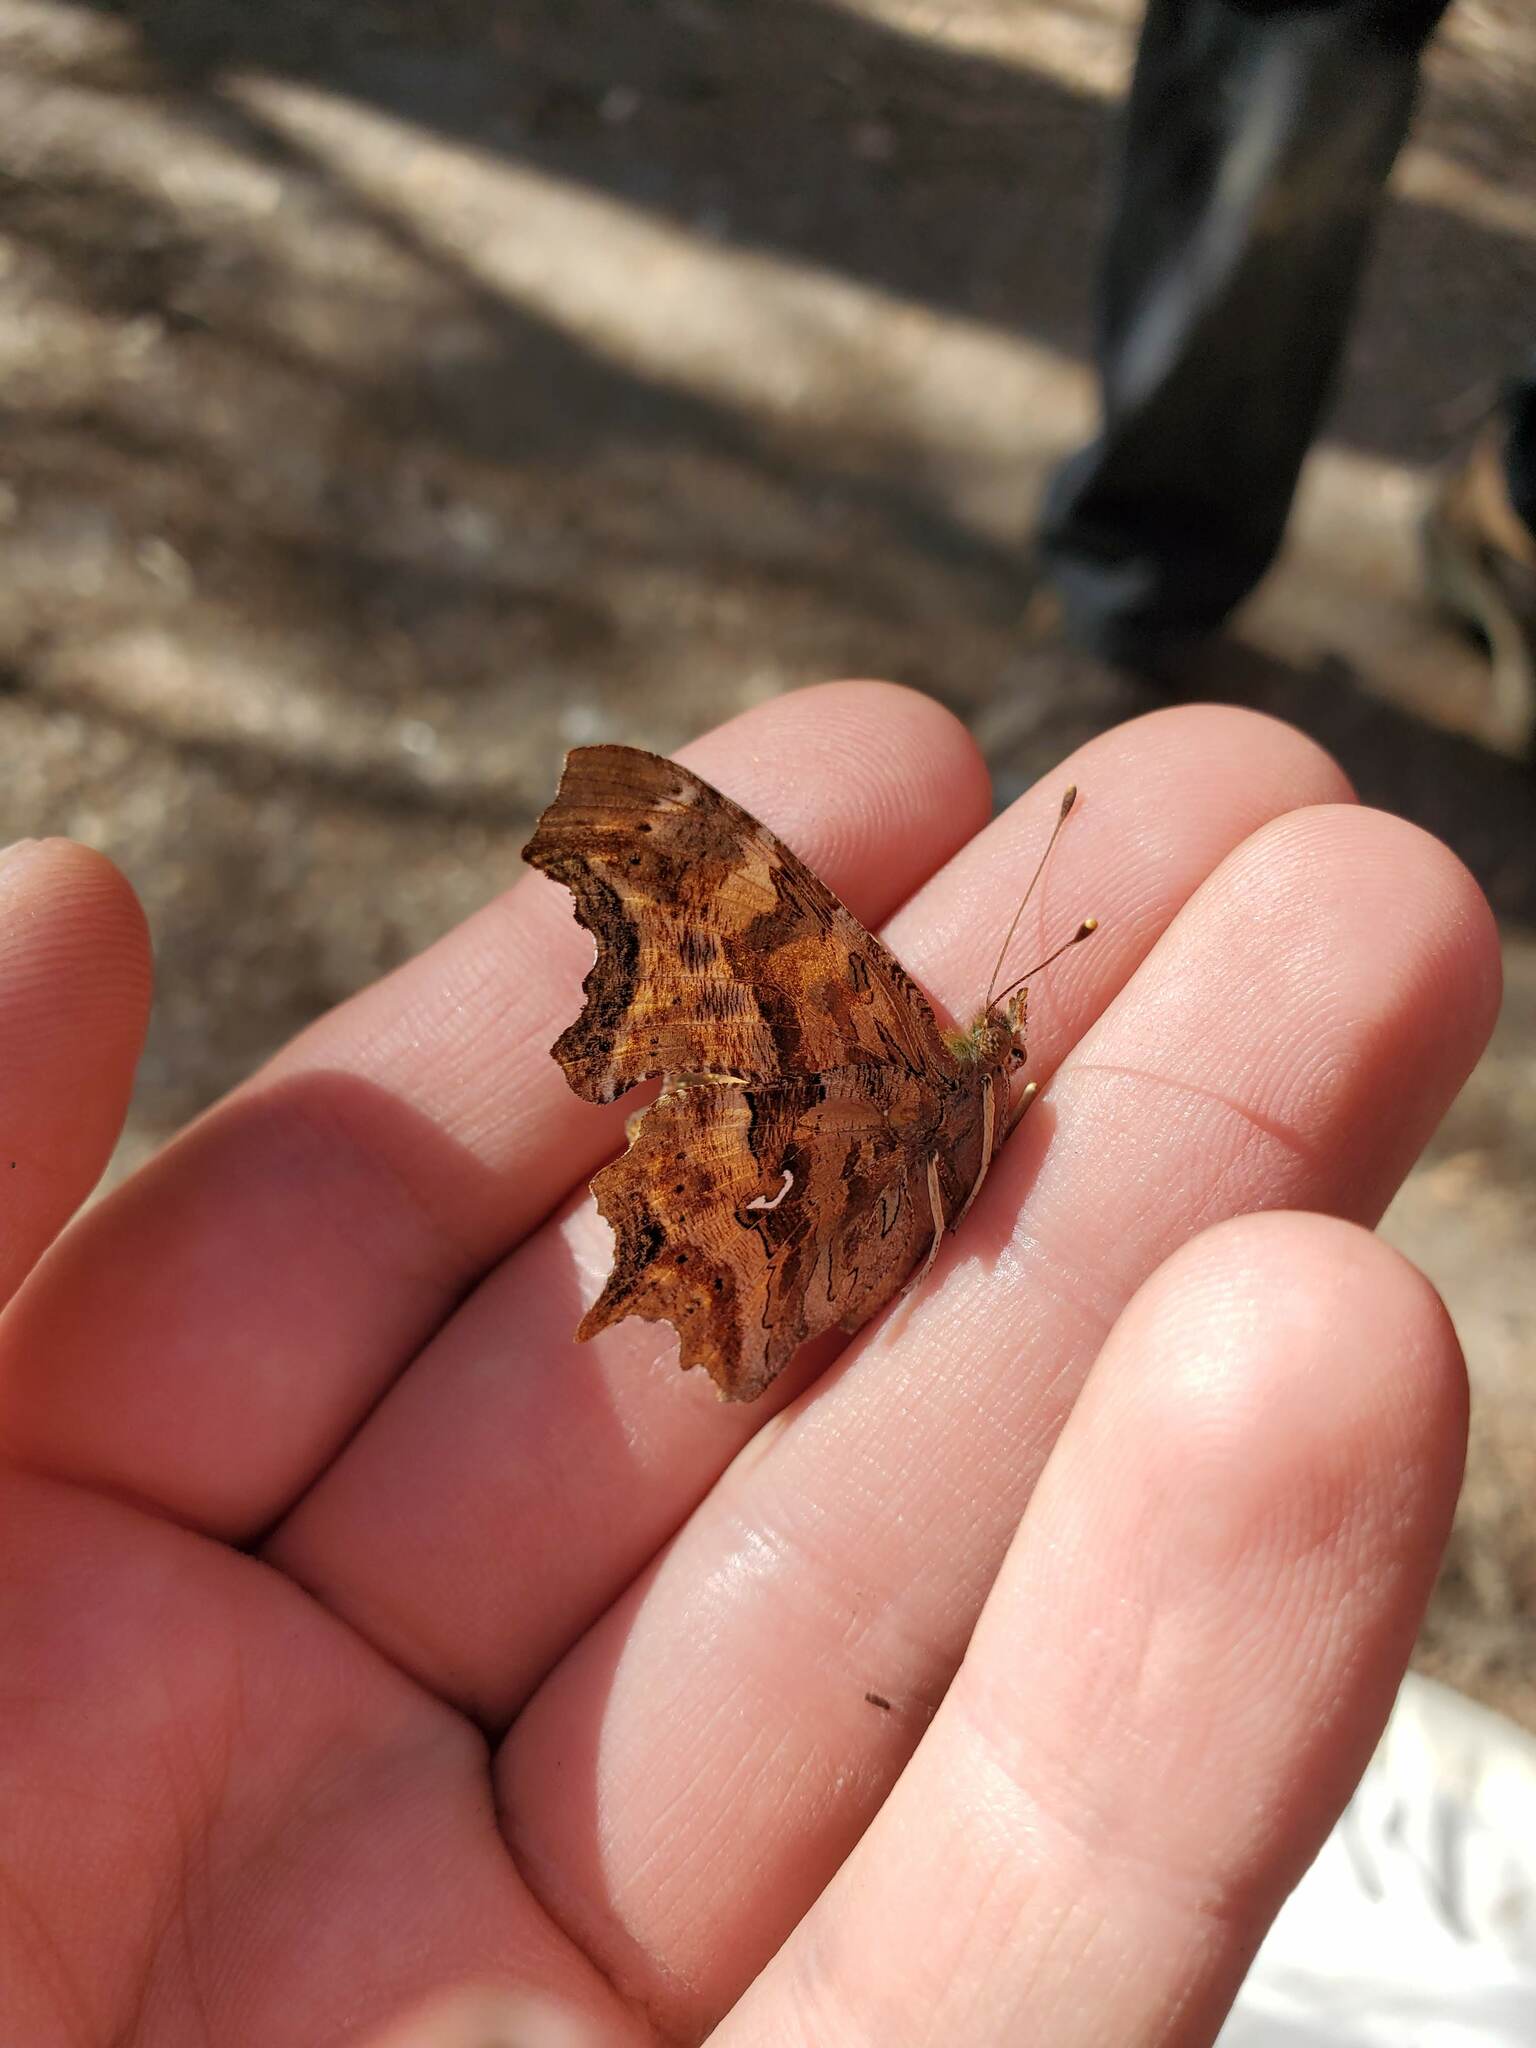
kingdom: Animalia
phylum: Arthropoda
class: Insecta
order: Lepidoptera
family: Nymphalidae
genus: Polygonia
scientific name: Polygonia satyrus
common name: Satyr angle wing
